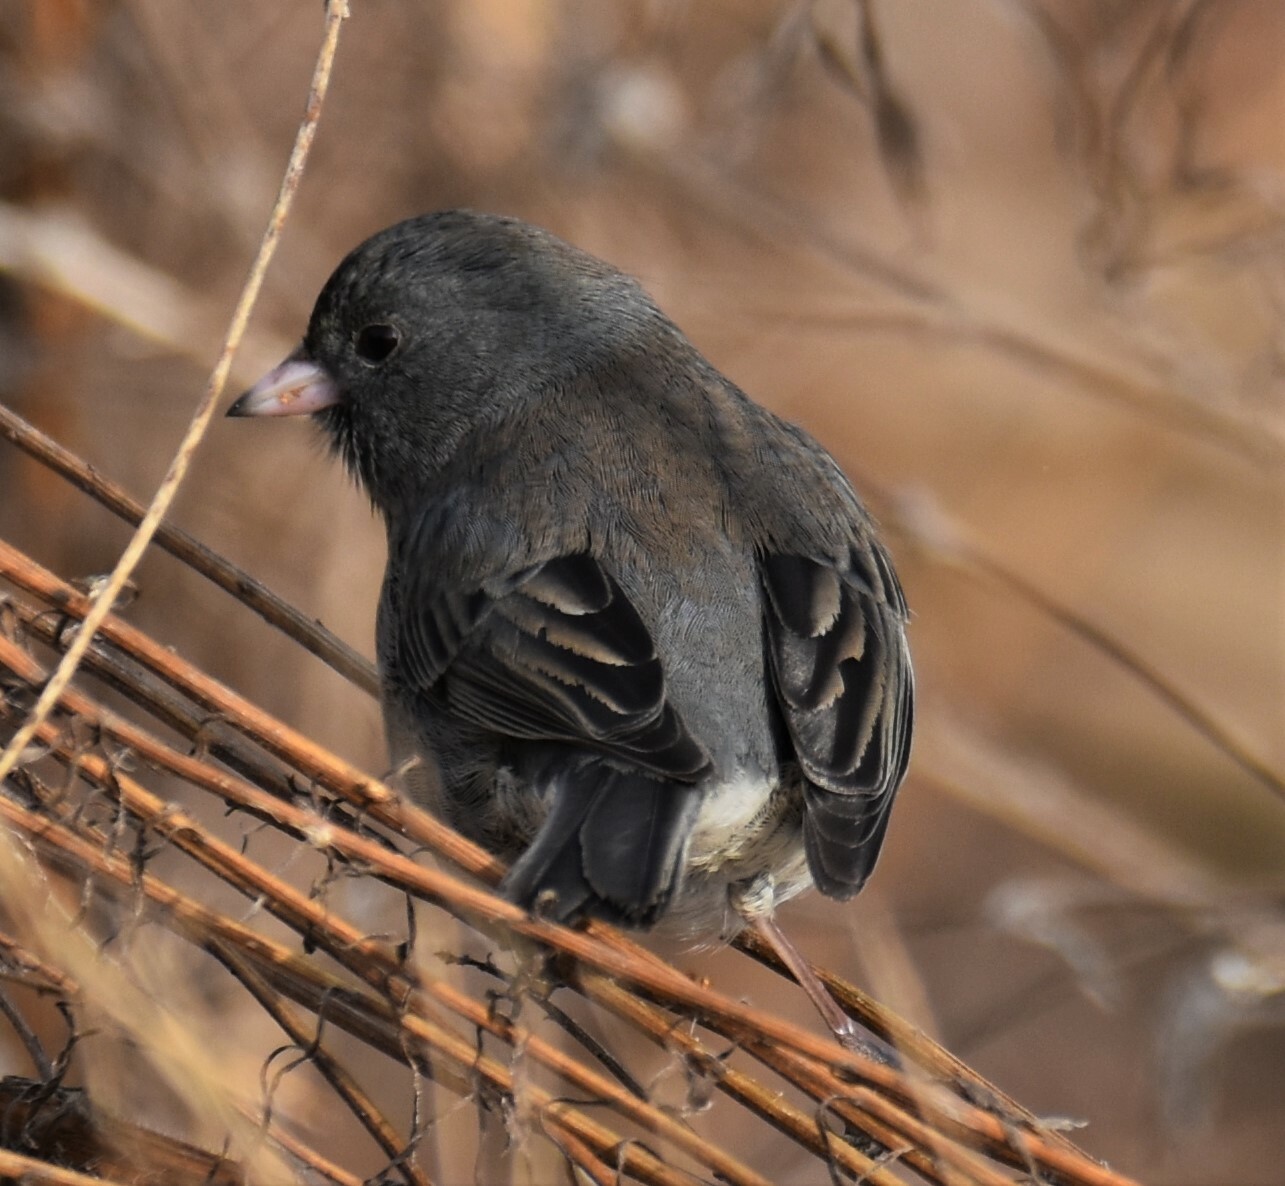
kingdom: Animalia
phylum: Chordata
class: Aves
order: Passeriformes
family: Passerellidae
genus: Junco
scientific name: Junco hyemalis
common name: Dark-eyed junco
